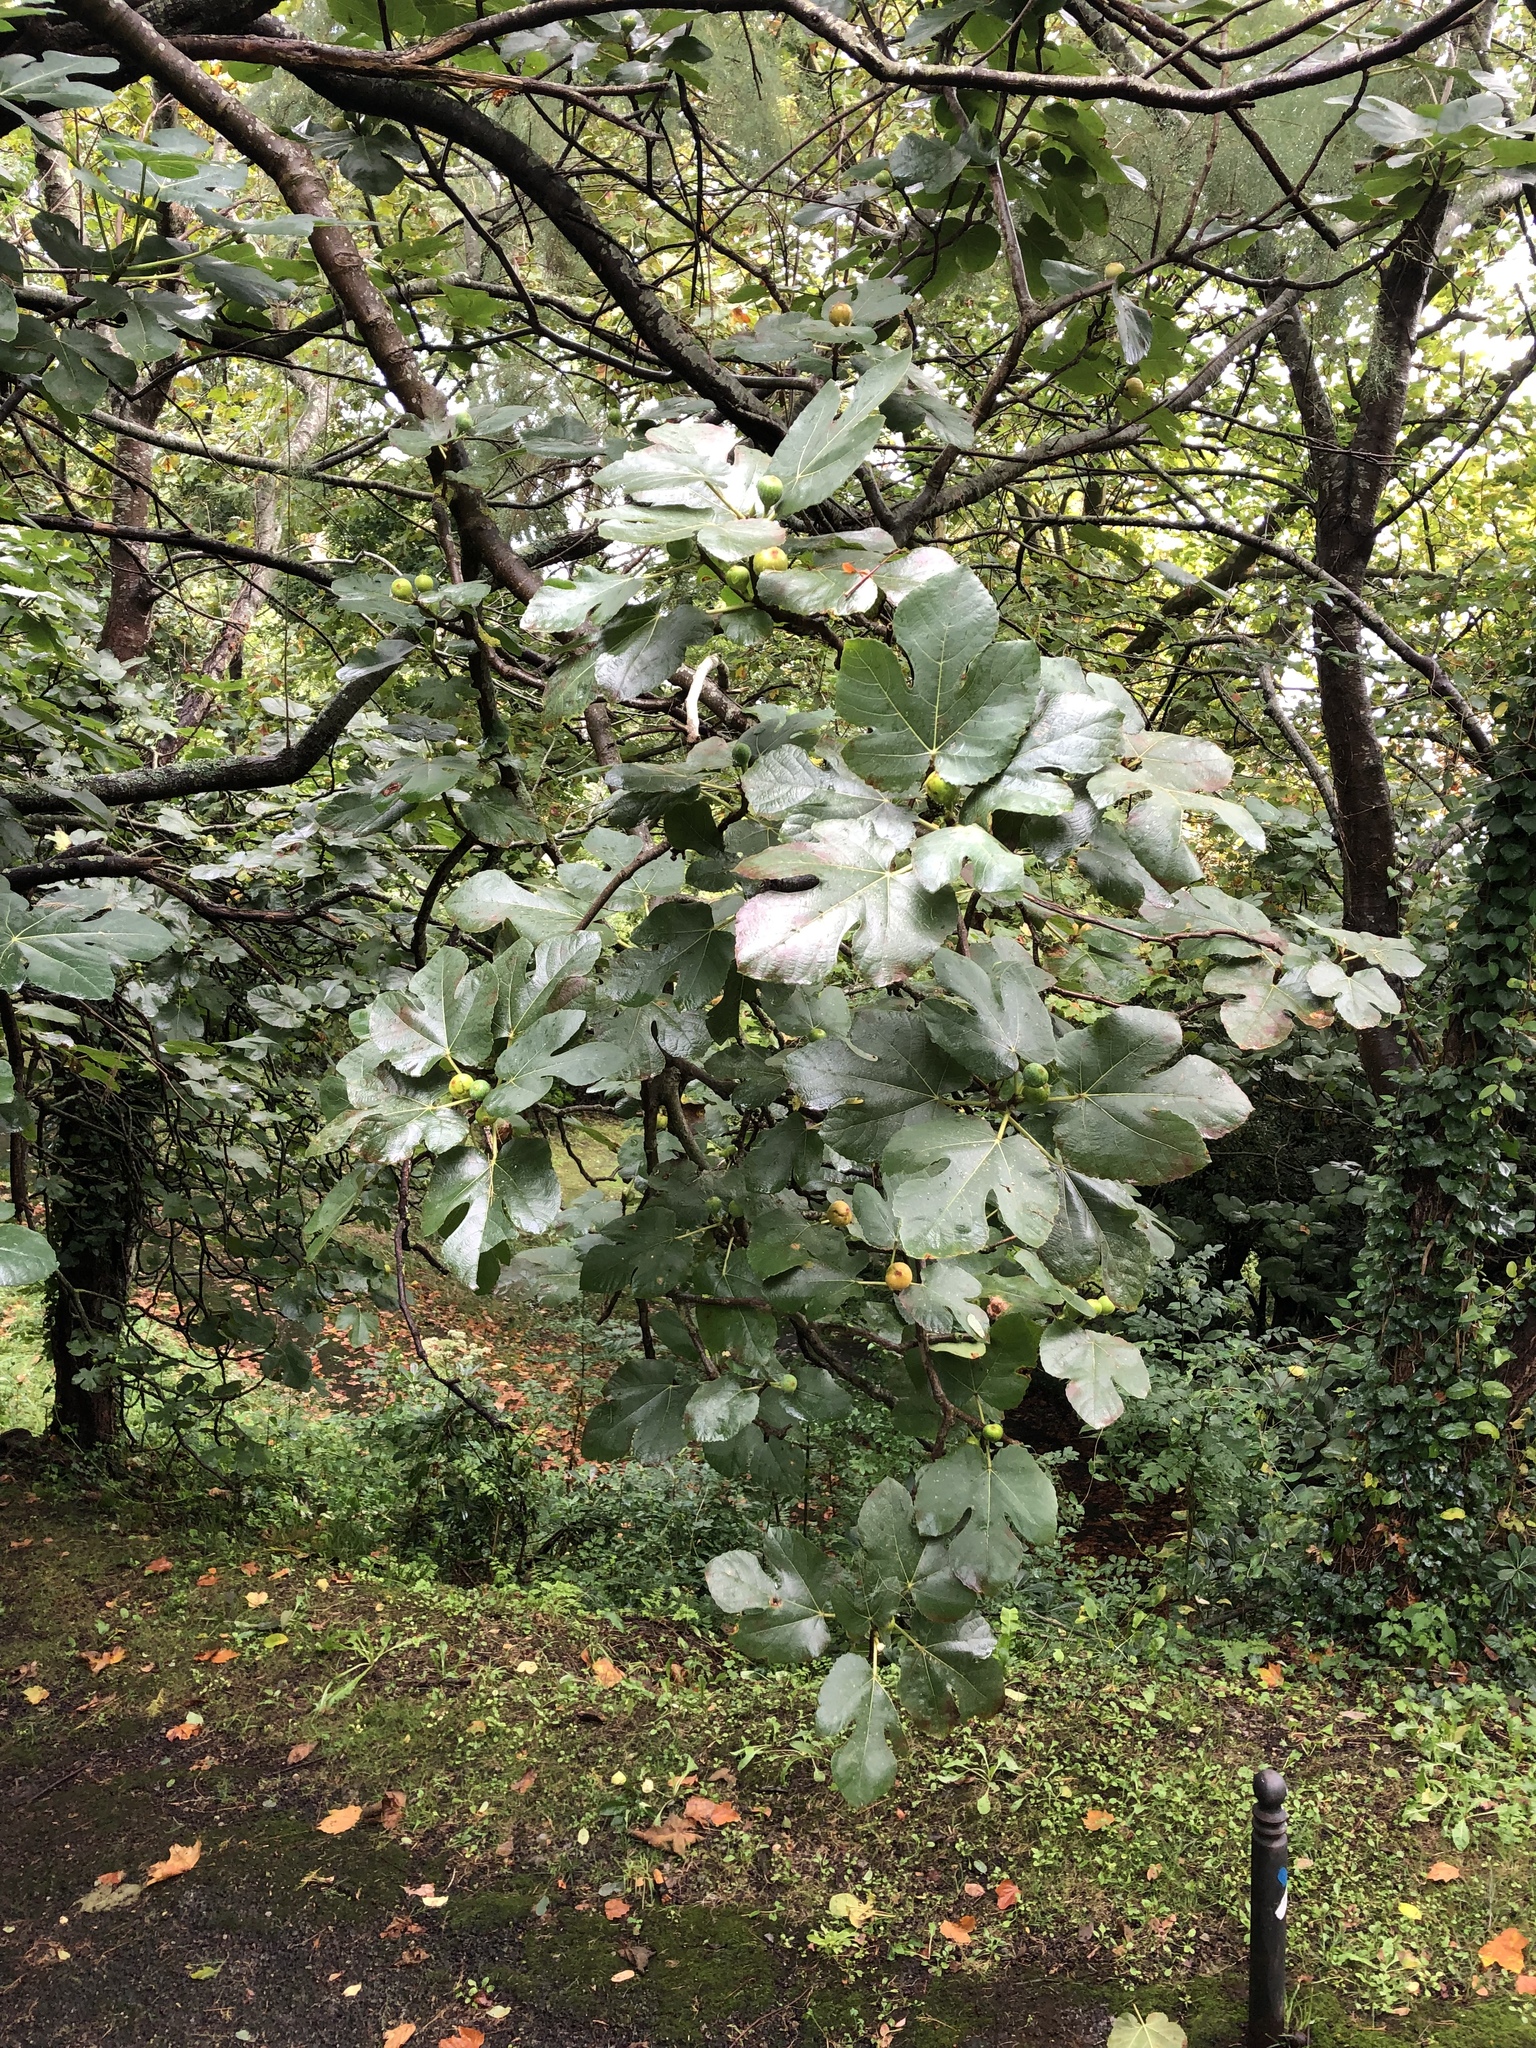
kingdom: Plantae
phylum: Tracheophyta
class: Magnoliopsida
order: Rosales
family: Moraceae
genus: Ficus
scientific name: Ficus carica
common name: Fig
